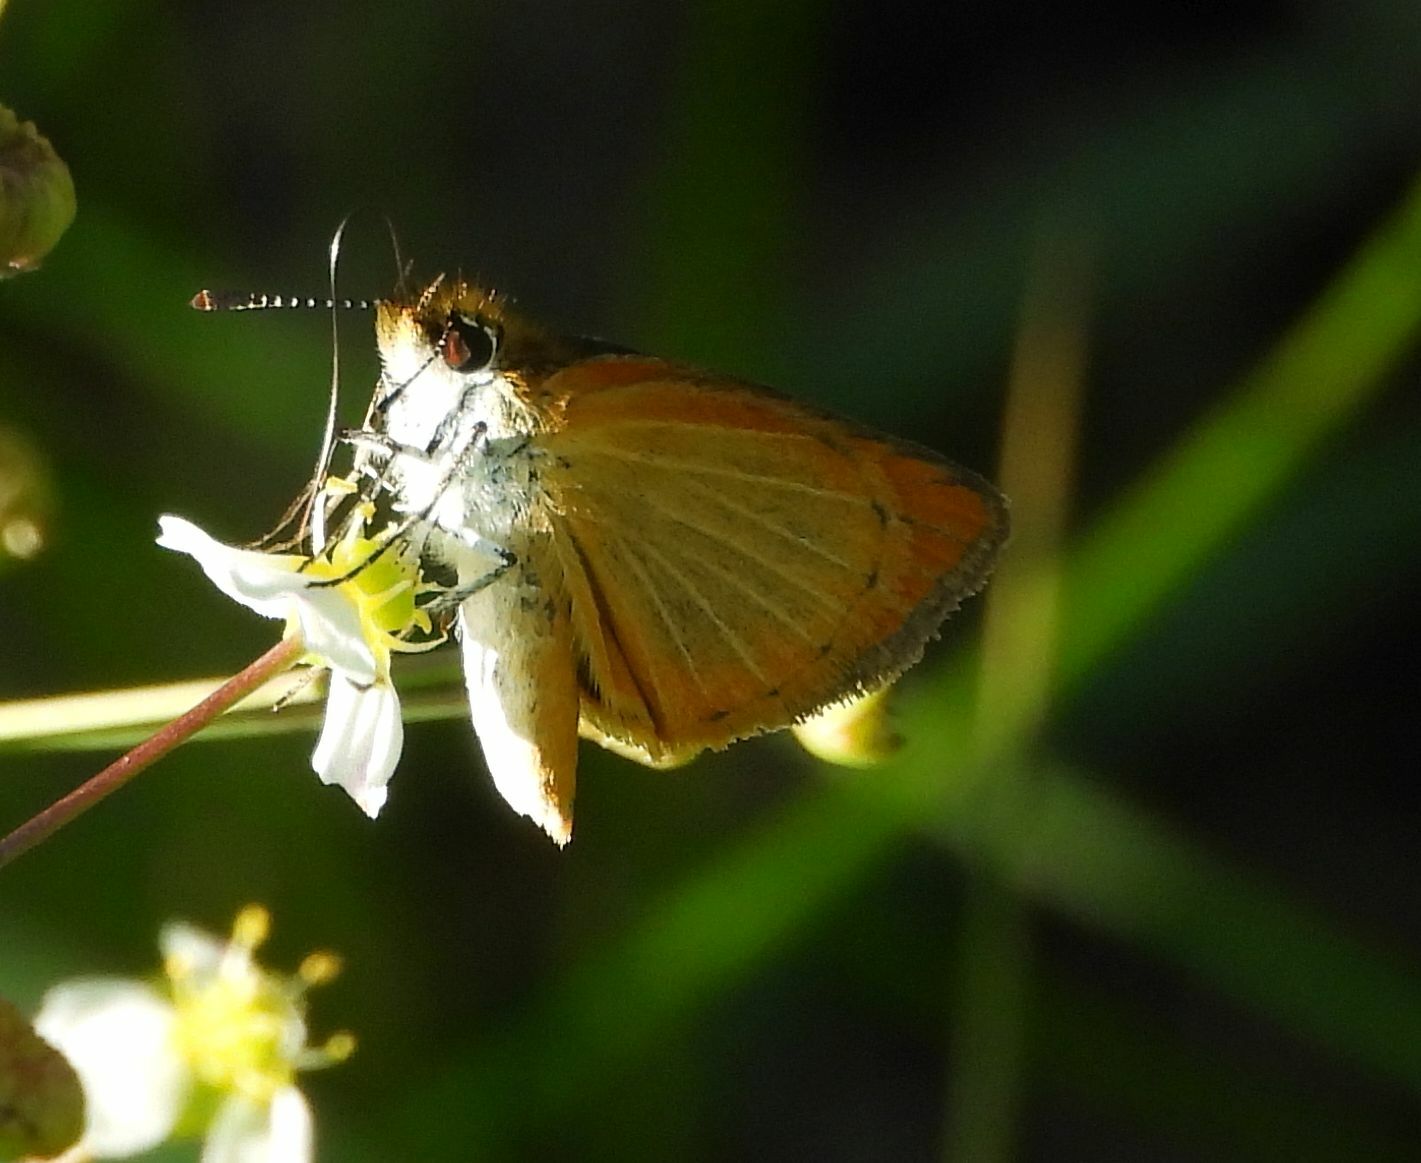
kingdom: Animalia
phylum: Arthropoda
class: Insecta
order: Lepidoptera
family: Hesperiidae
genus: Ancyloxypha
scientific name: Ancyloxypha numitor
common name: Least skipper
